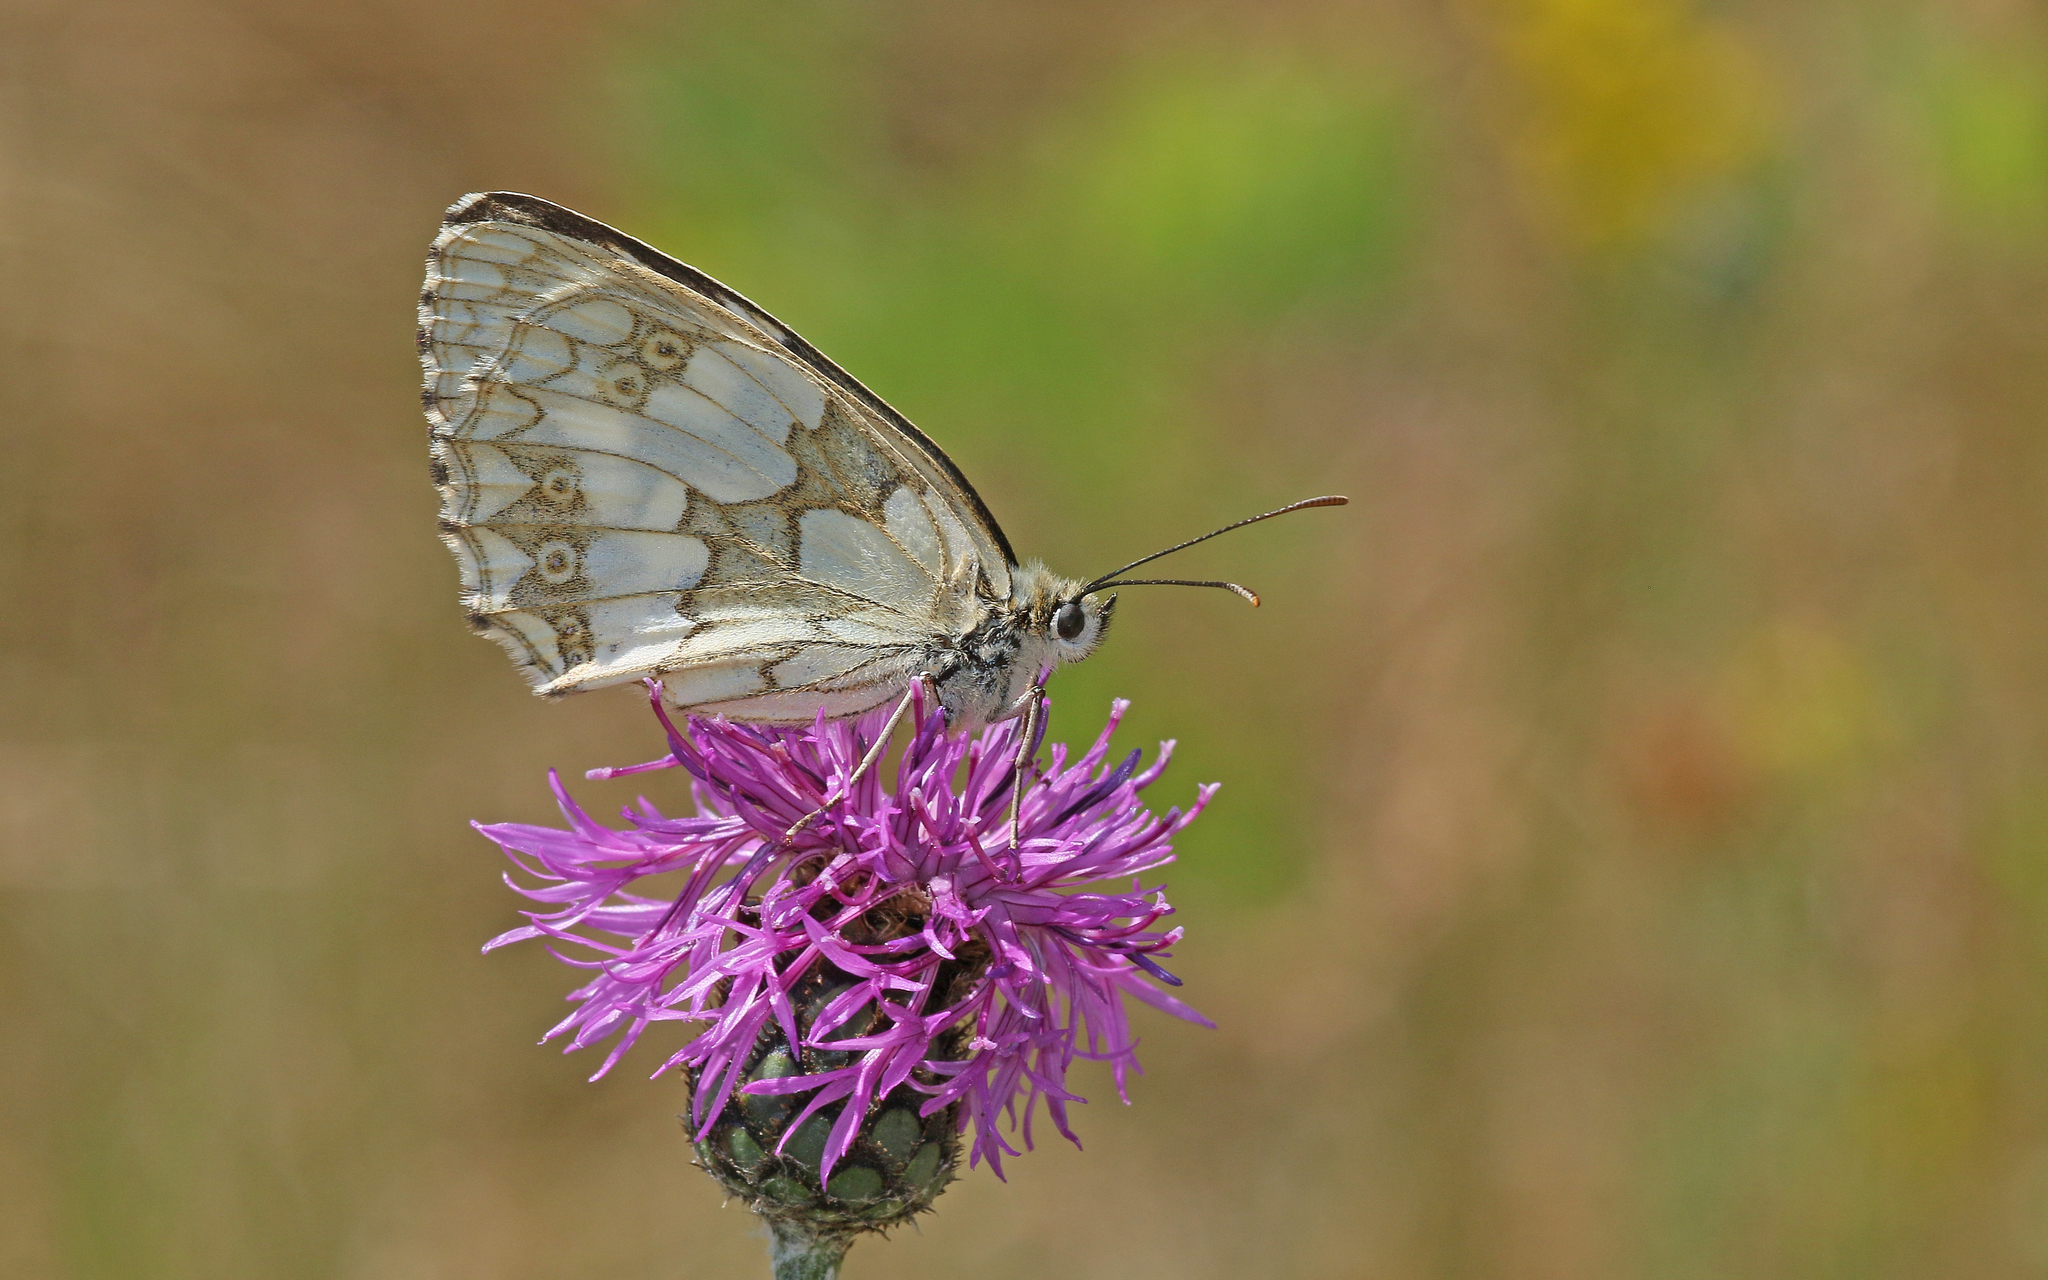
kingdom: Animalia
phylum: Arthropoda
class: Insecta
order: Lepidoptera
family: Nymphalidae
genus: Melanargia
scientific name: Melanargia galathea
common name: Marbled white
